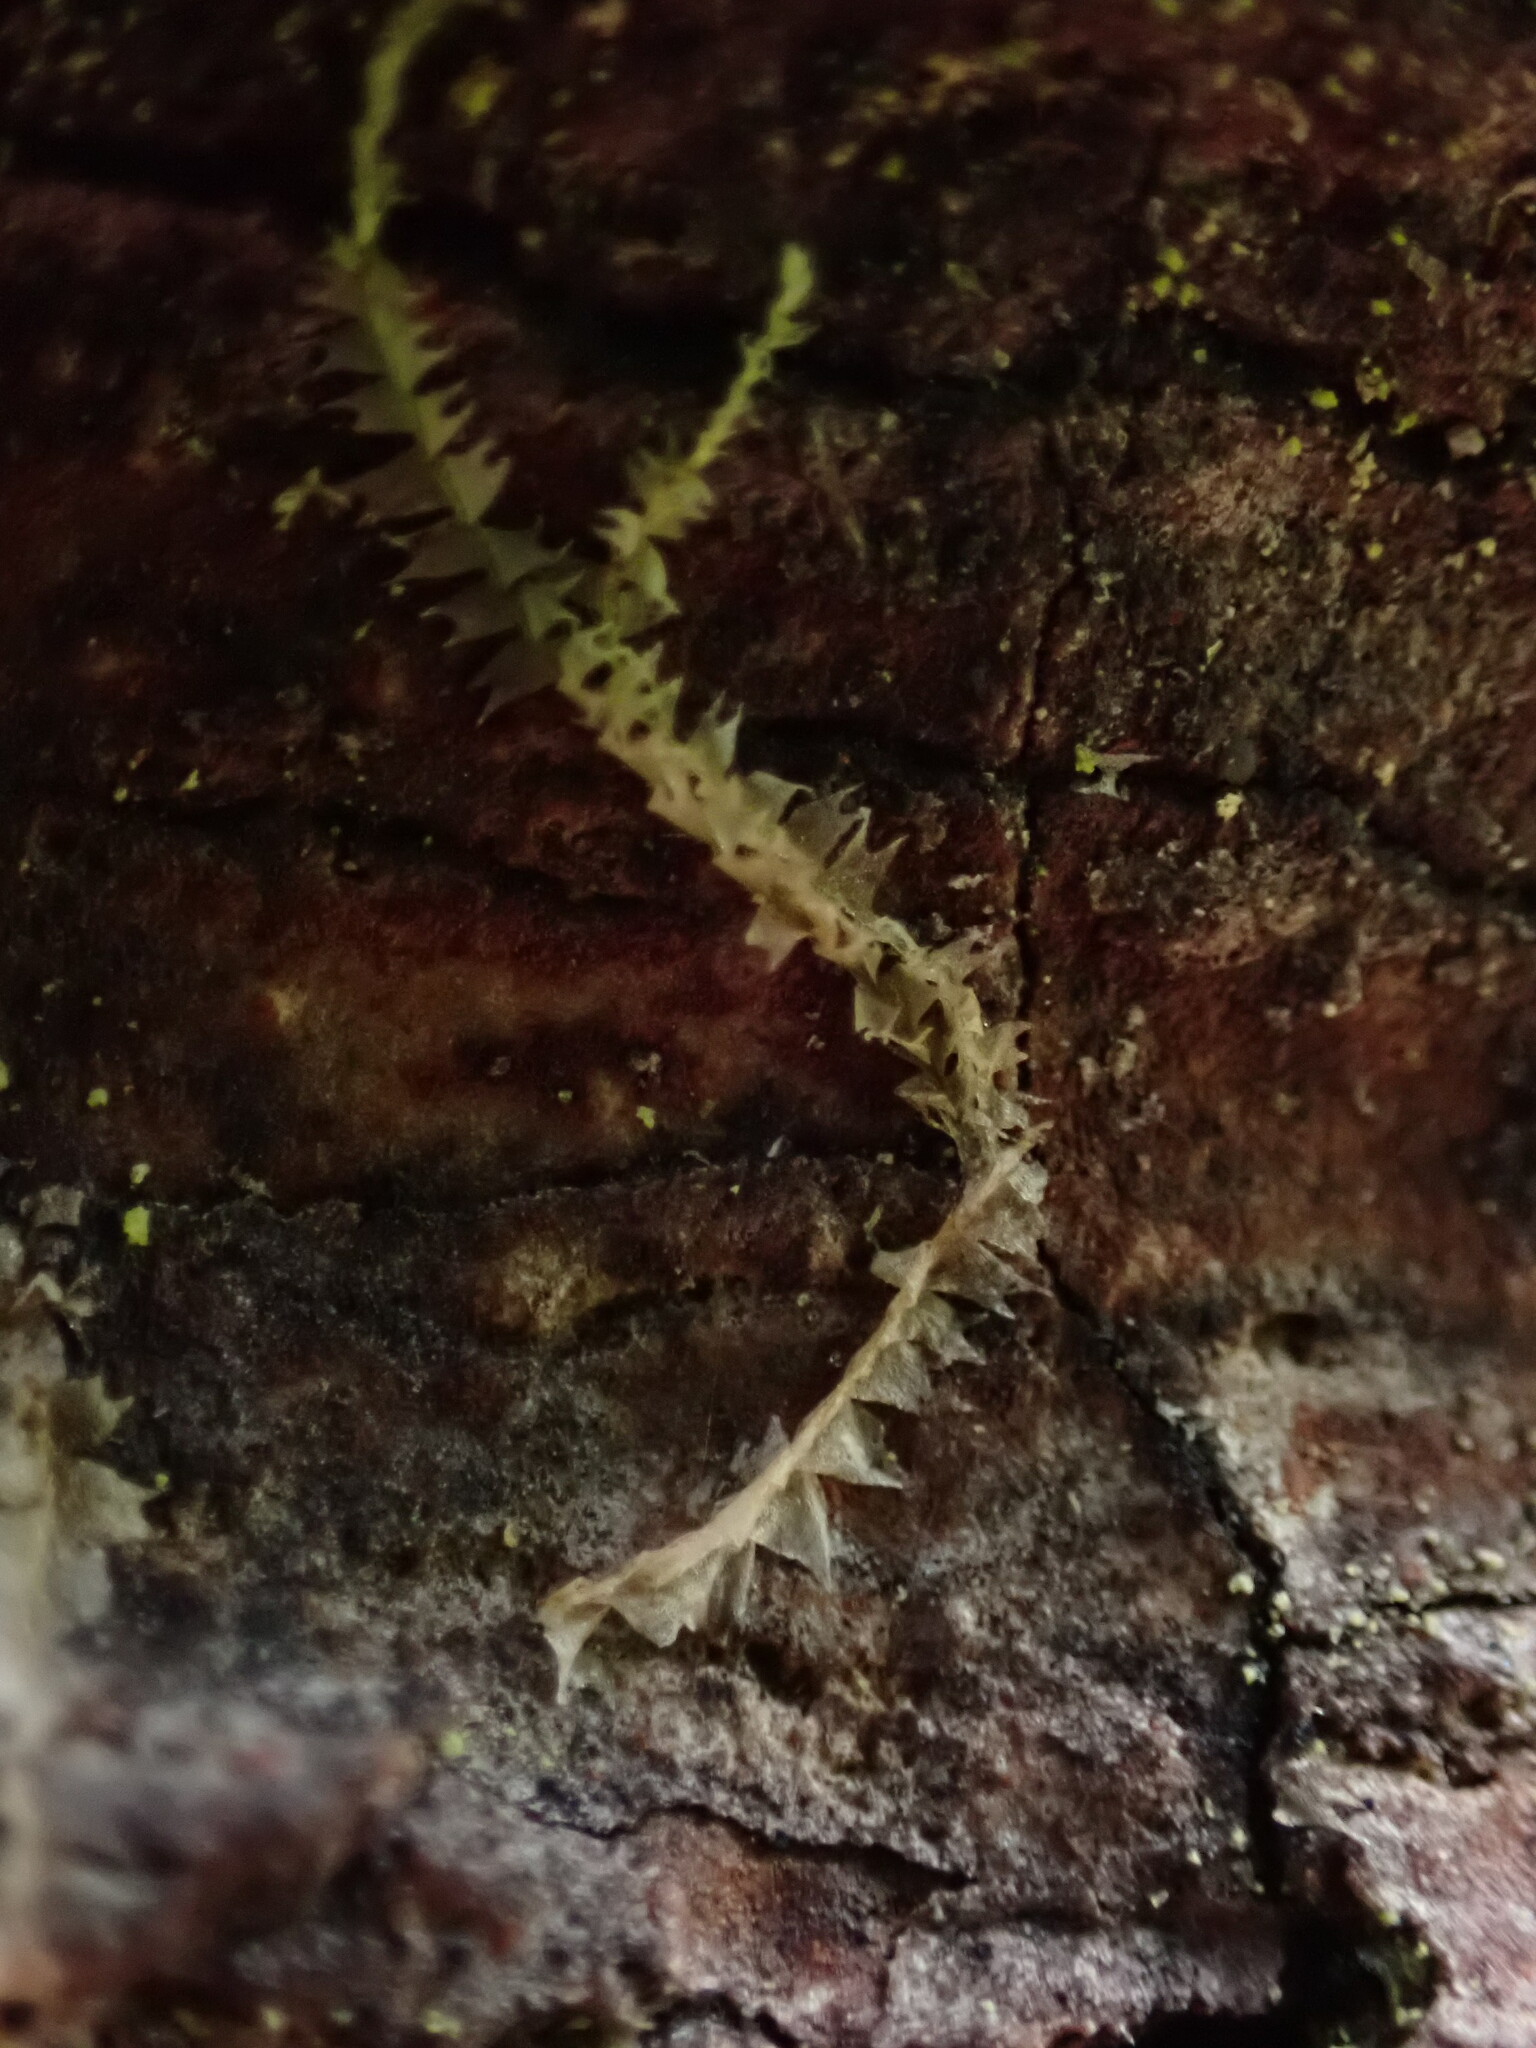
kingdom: Plantae
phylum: Marchantiophyta
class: Jungermanniopsida
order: Jungermanniales
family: Lophocoleaceae
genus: Lophocolea
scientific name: Lophocolea bidentata
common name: Bifid crestwort
